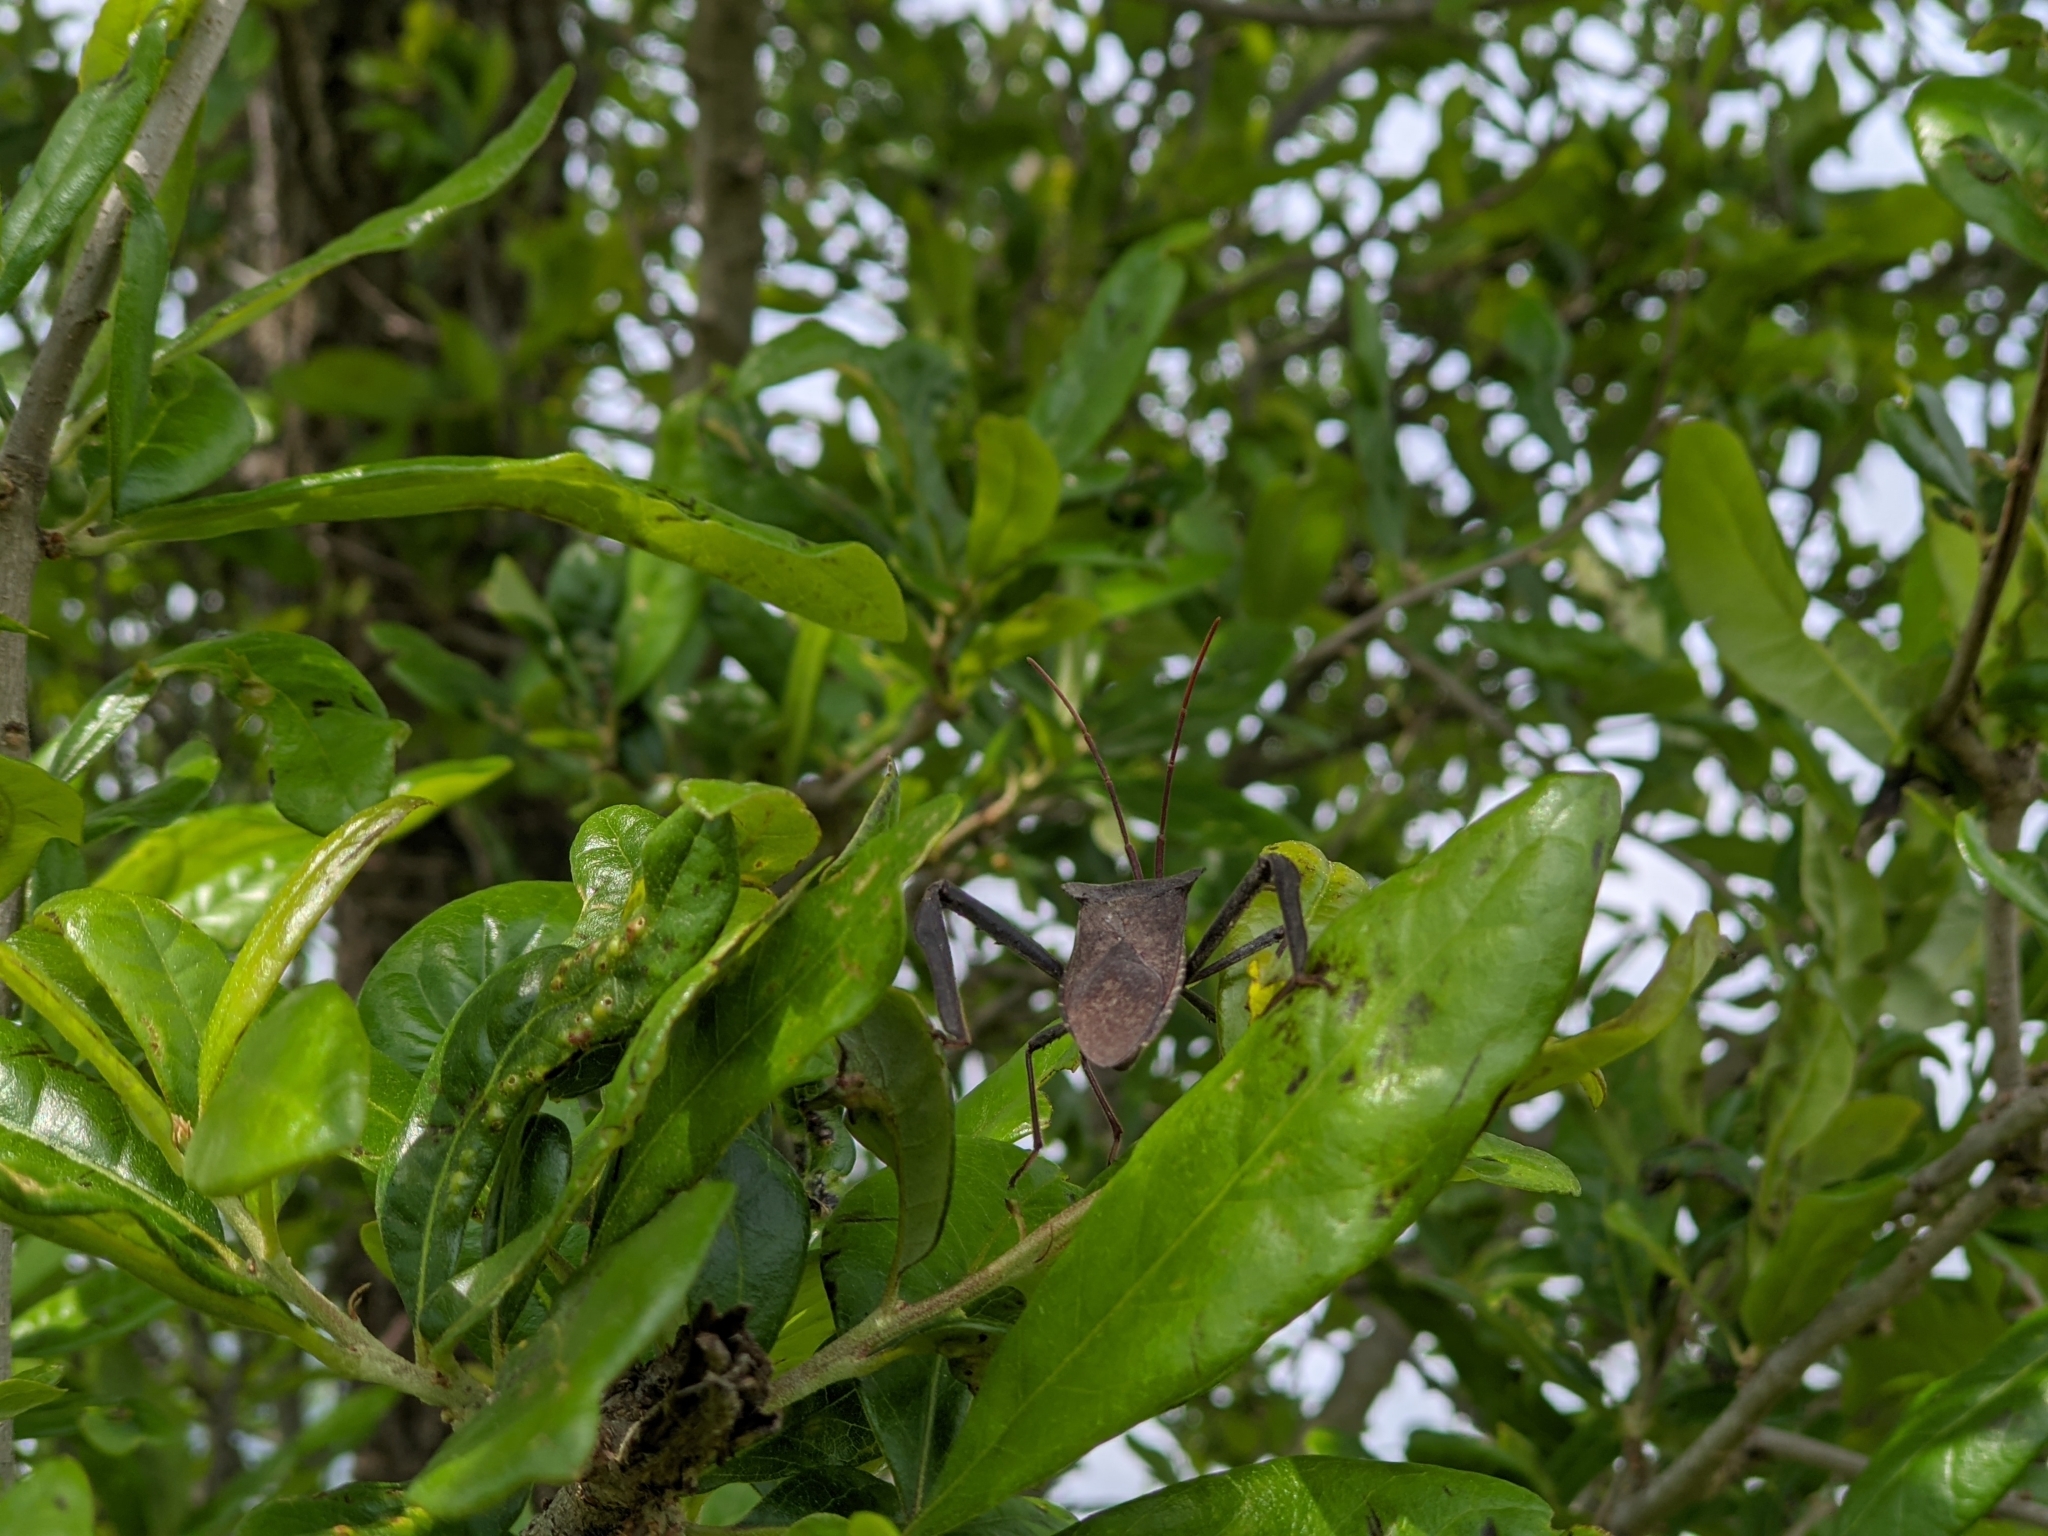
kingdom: Animalia
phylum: Arthropoda
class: Insecta
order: Hemiptera
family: Coreidae
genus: Acanthocephala
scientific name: Acanthocephala declivis
